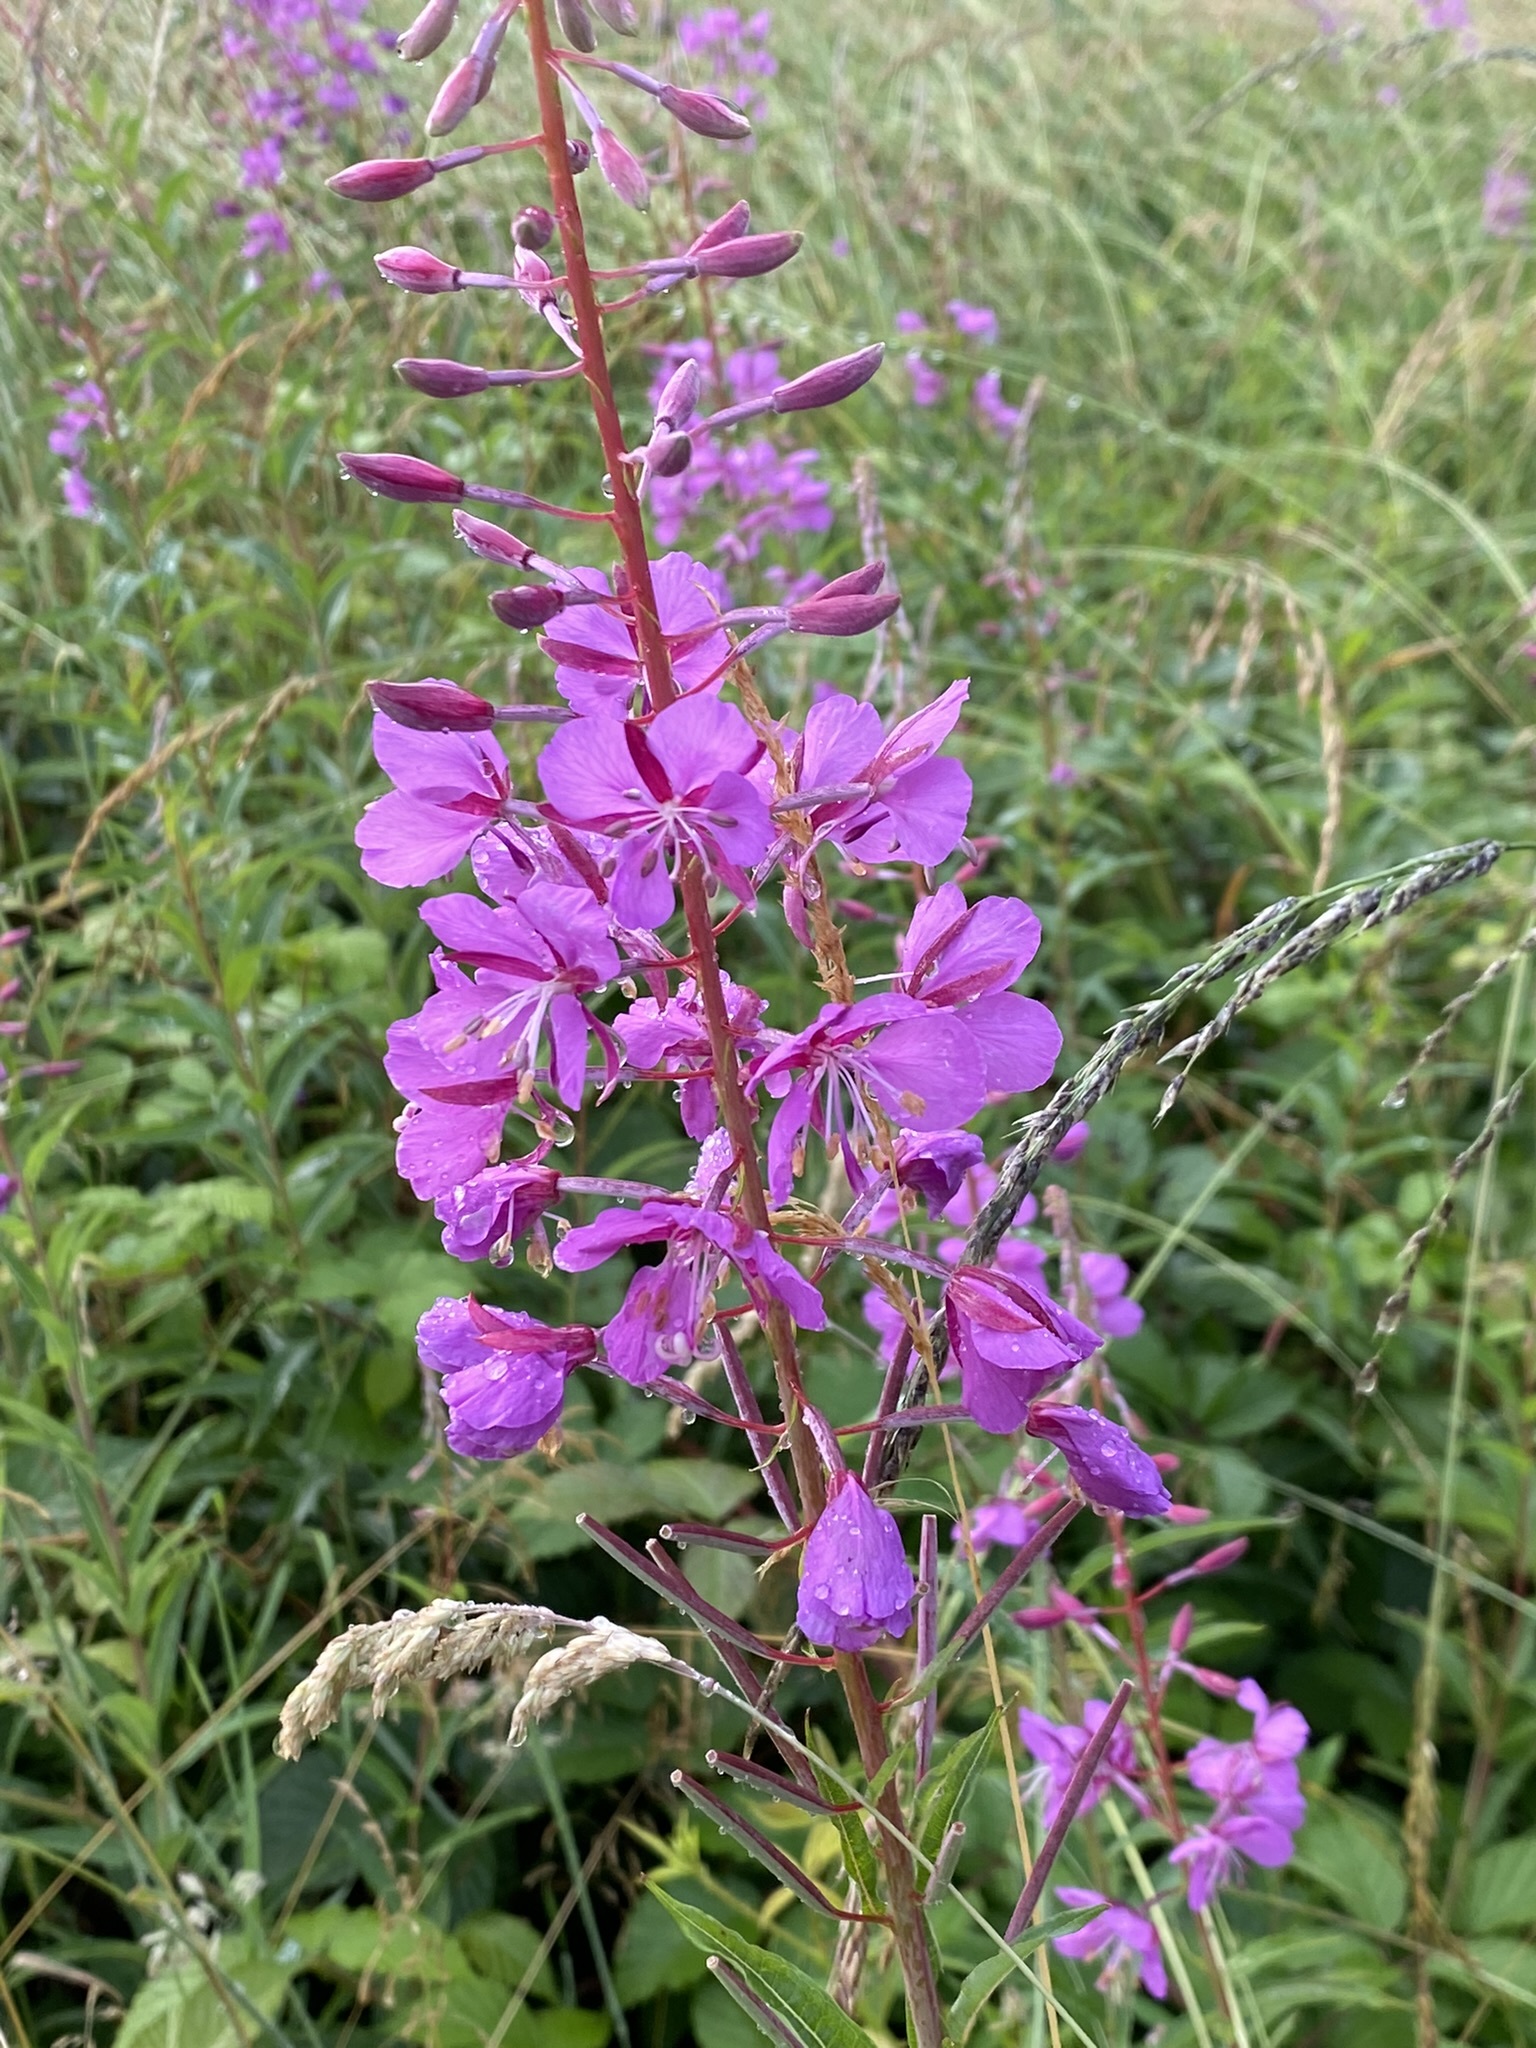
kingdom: Plantae
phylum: Tracheophyta
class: Magnoliopsida
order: Myrtales
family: Onagraceae
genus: Chamaenerion
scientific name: Chamaenerion angustifolium
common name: Fireweed
